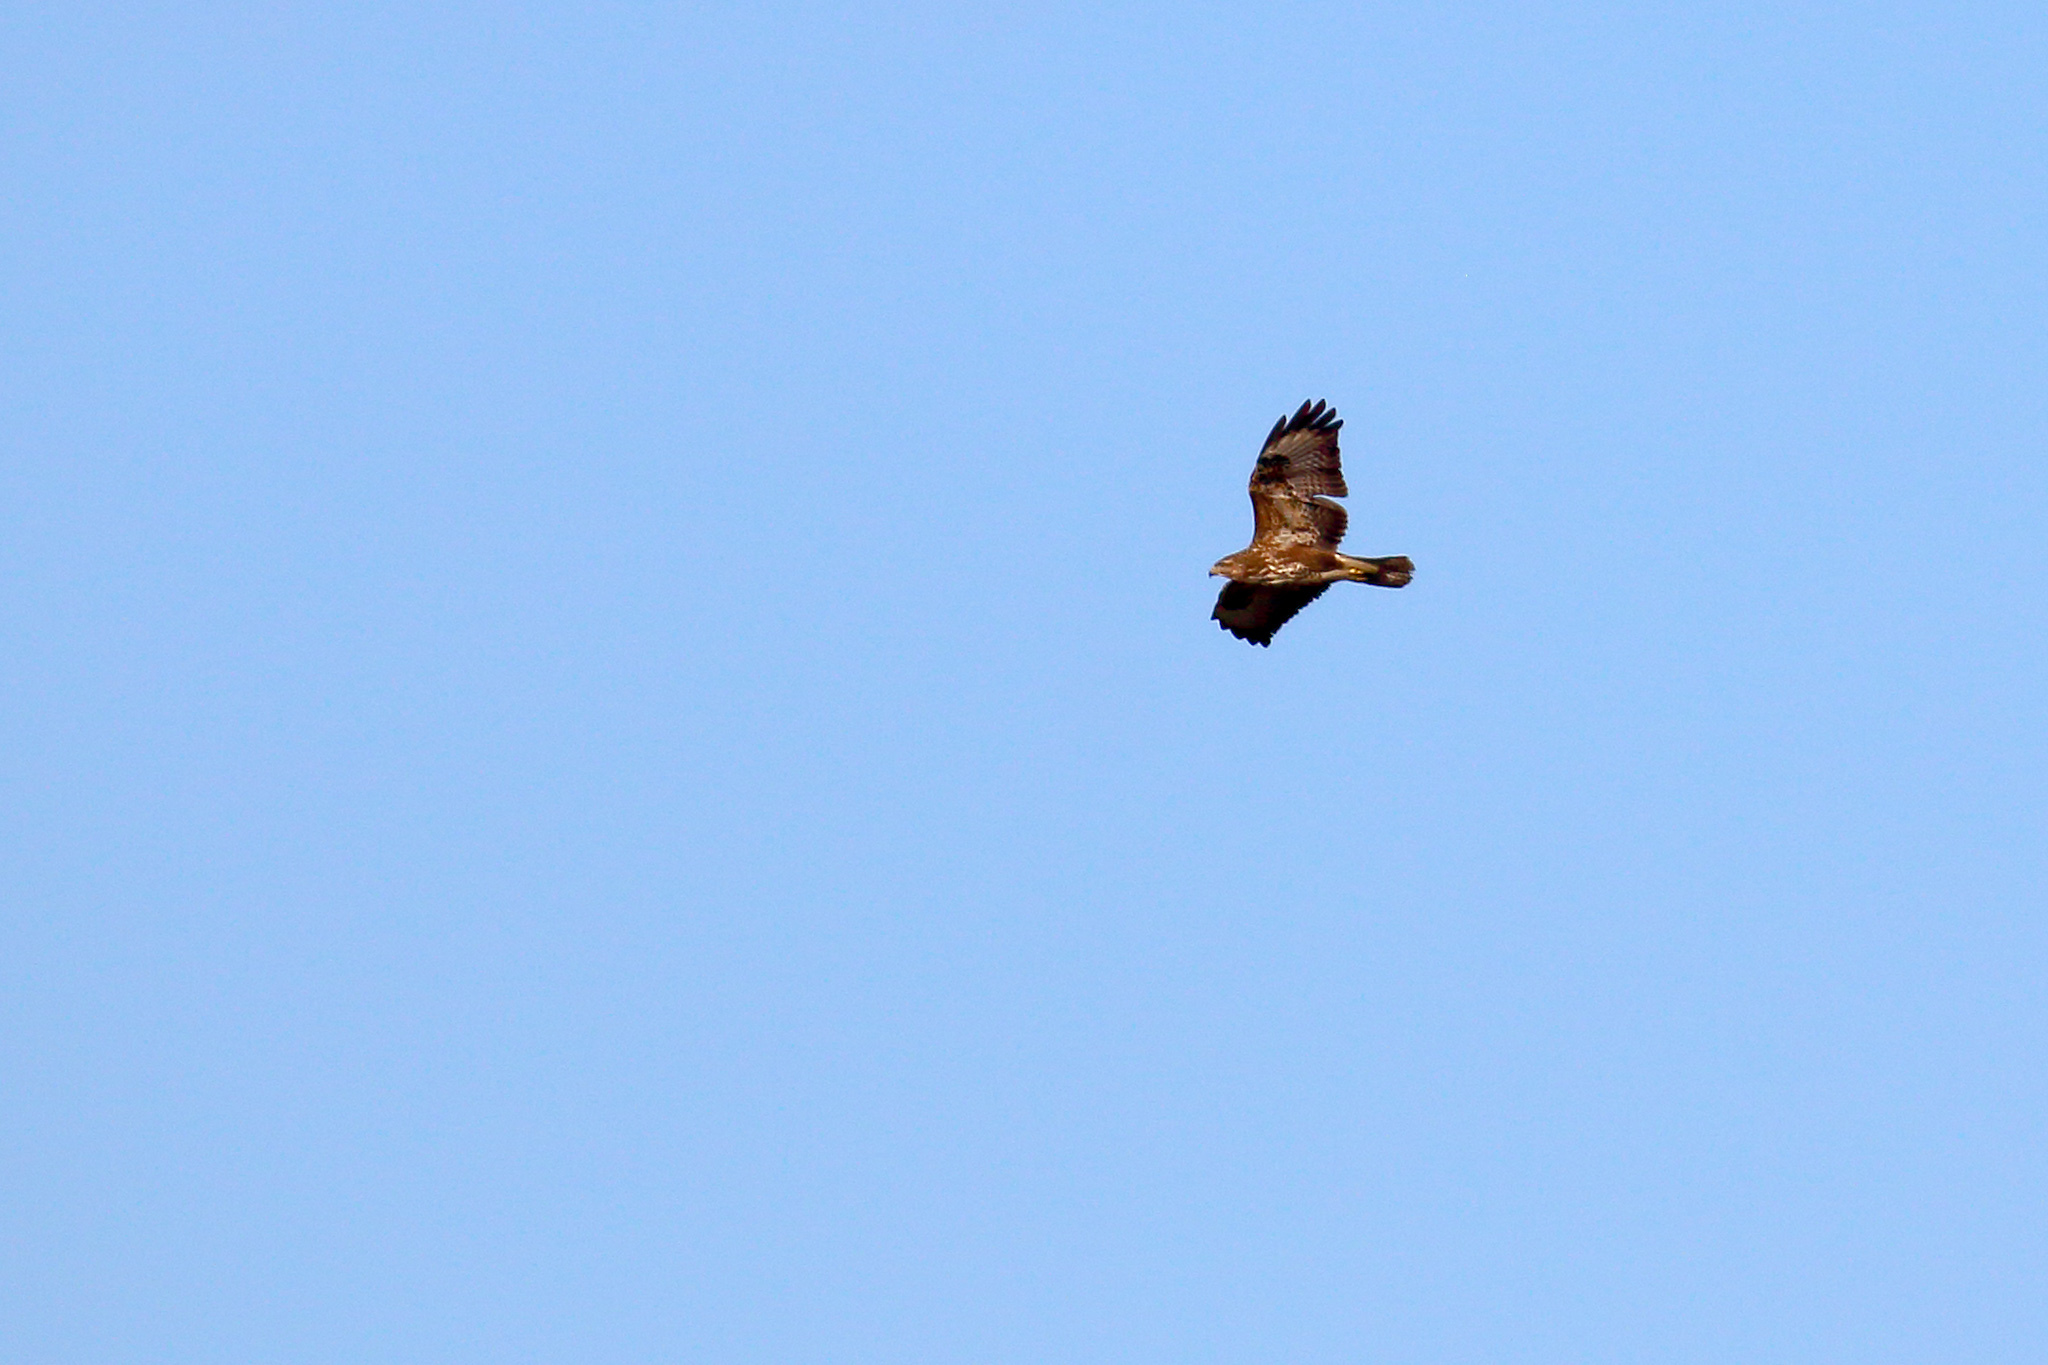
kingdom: Animalia
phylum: Chordata
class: Aves
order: Accipitriformes
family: Accipitridae
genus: Buteo
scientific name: Buteo buteo
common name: Common buzzard
